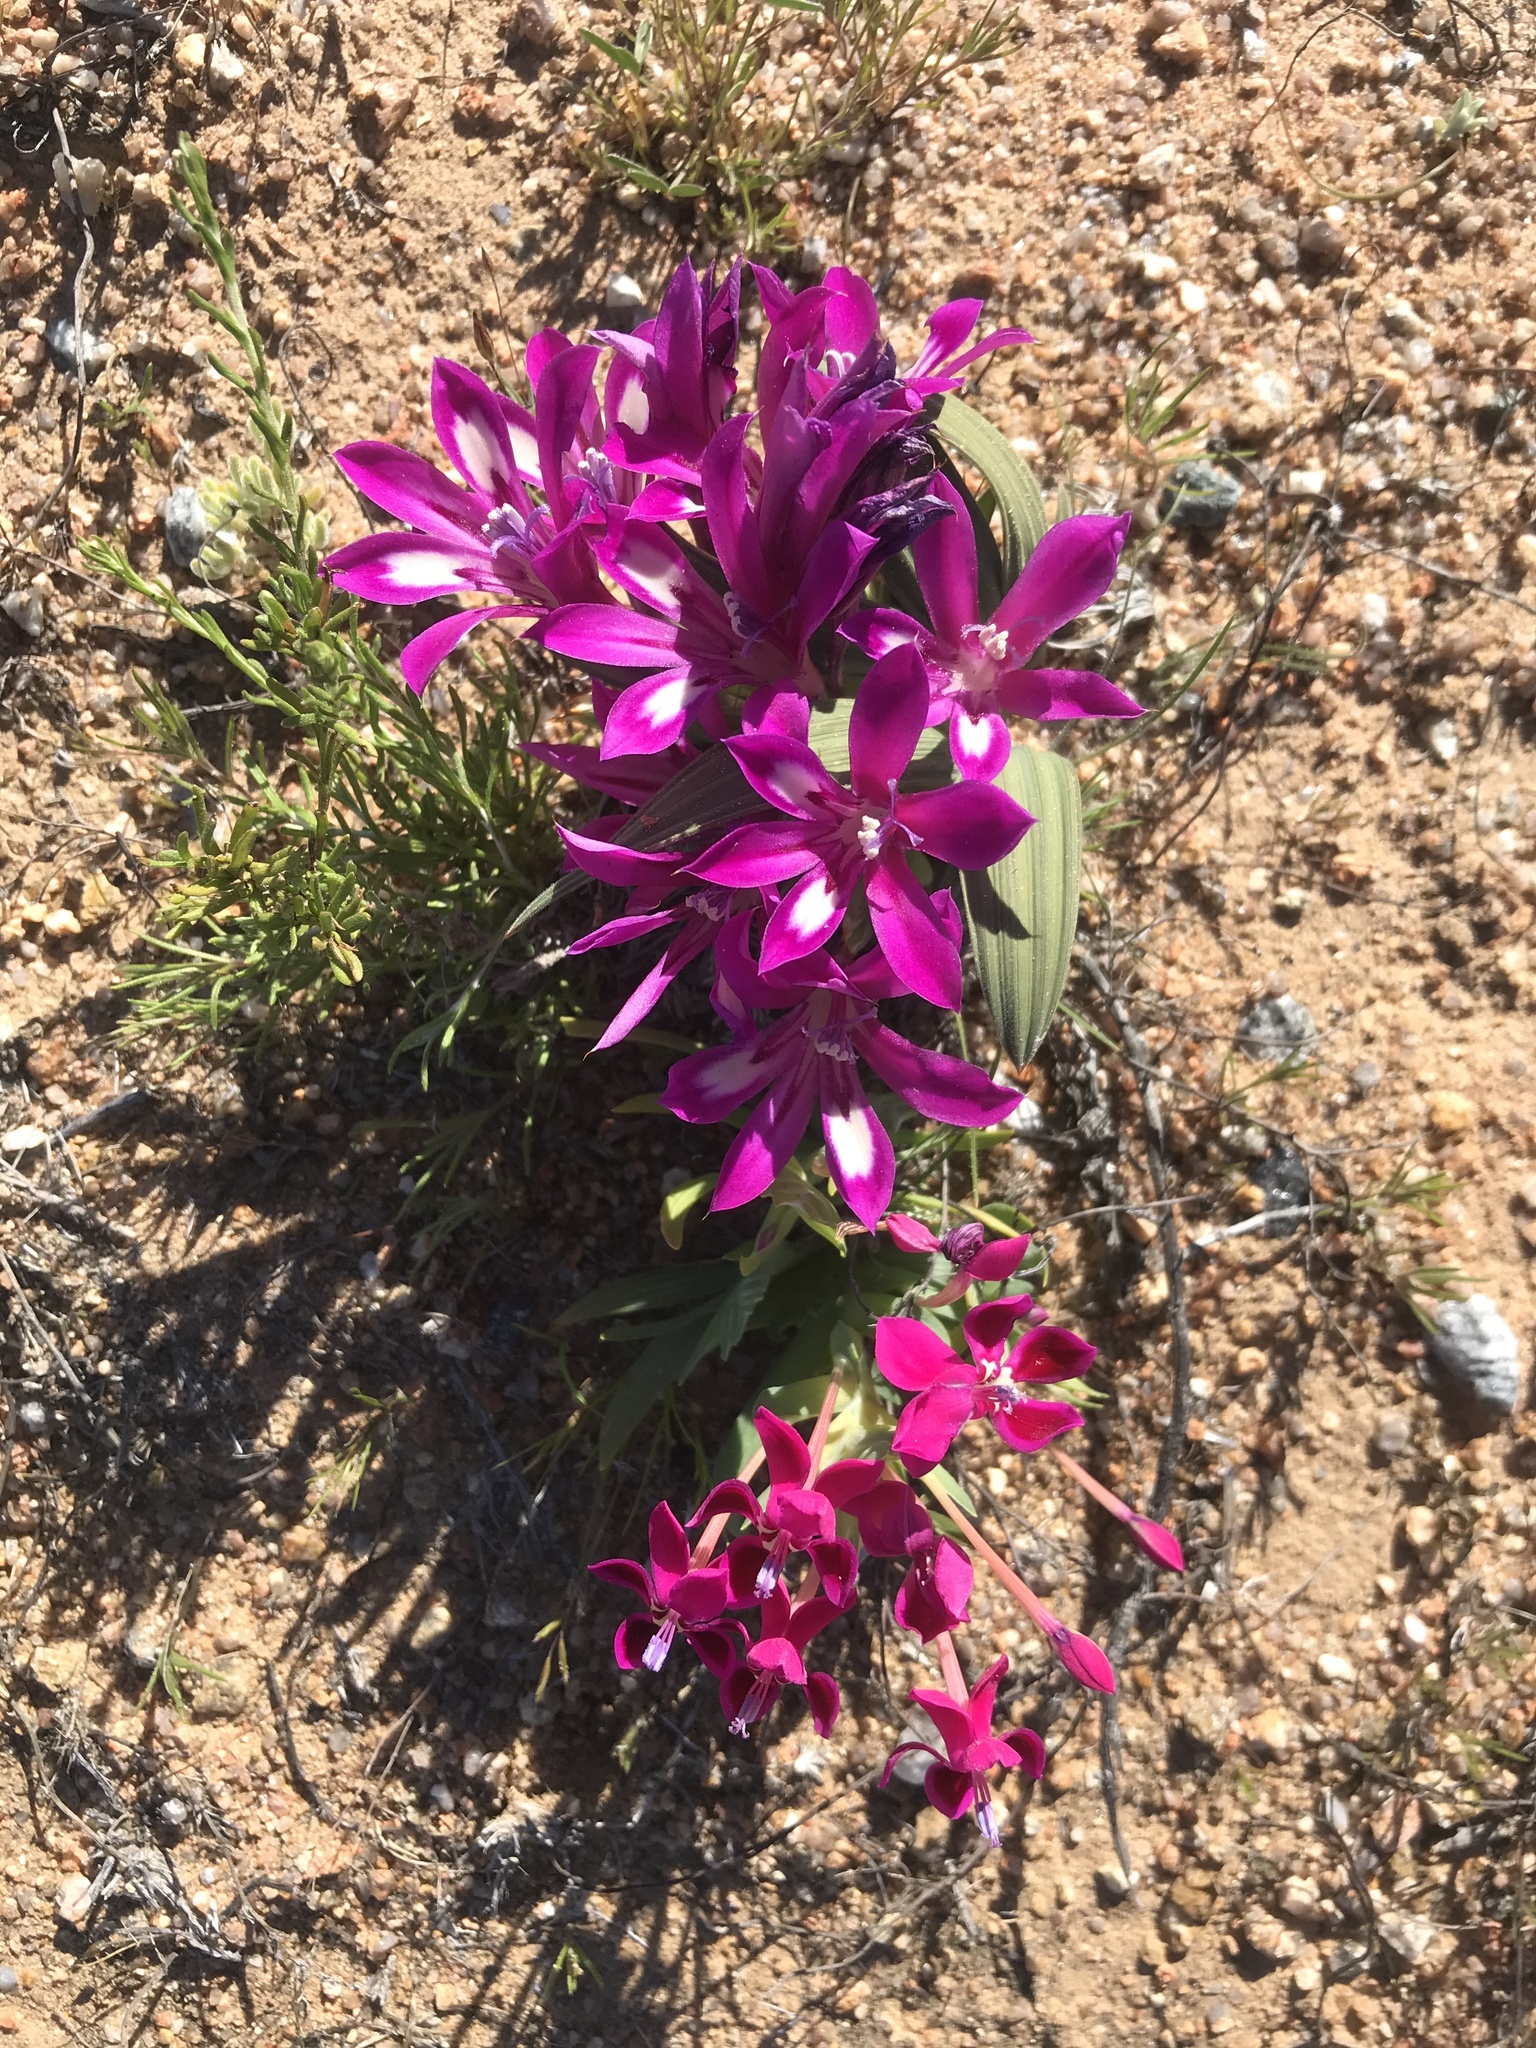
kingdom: Plantae
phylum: Tracheophyta
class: Liliopsida
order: Asparagales
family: Iridaceae
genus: Babiana
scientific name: Babiana curviscapa
